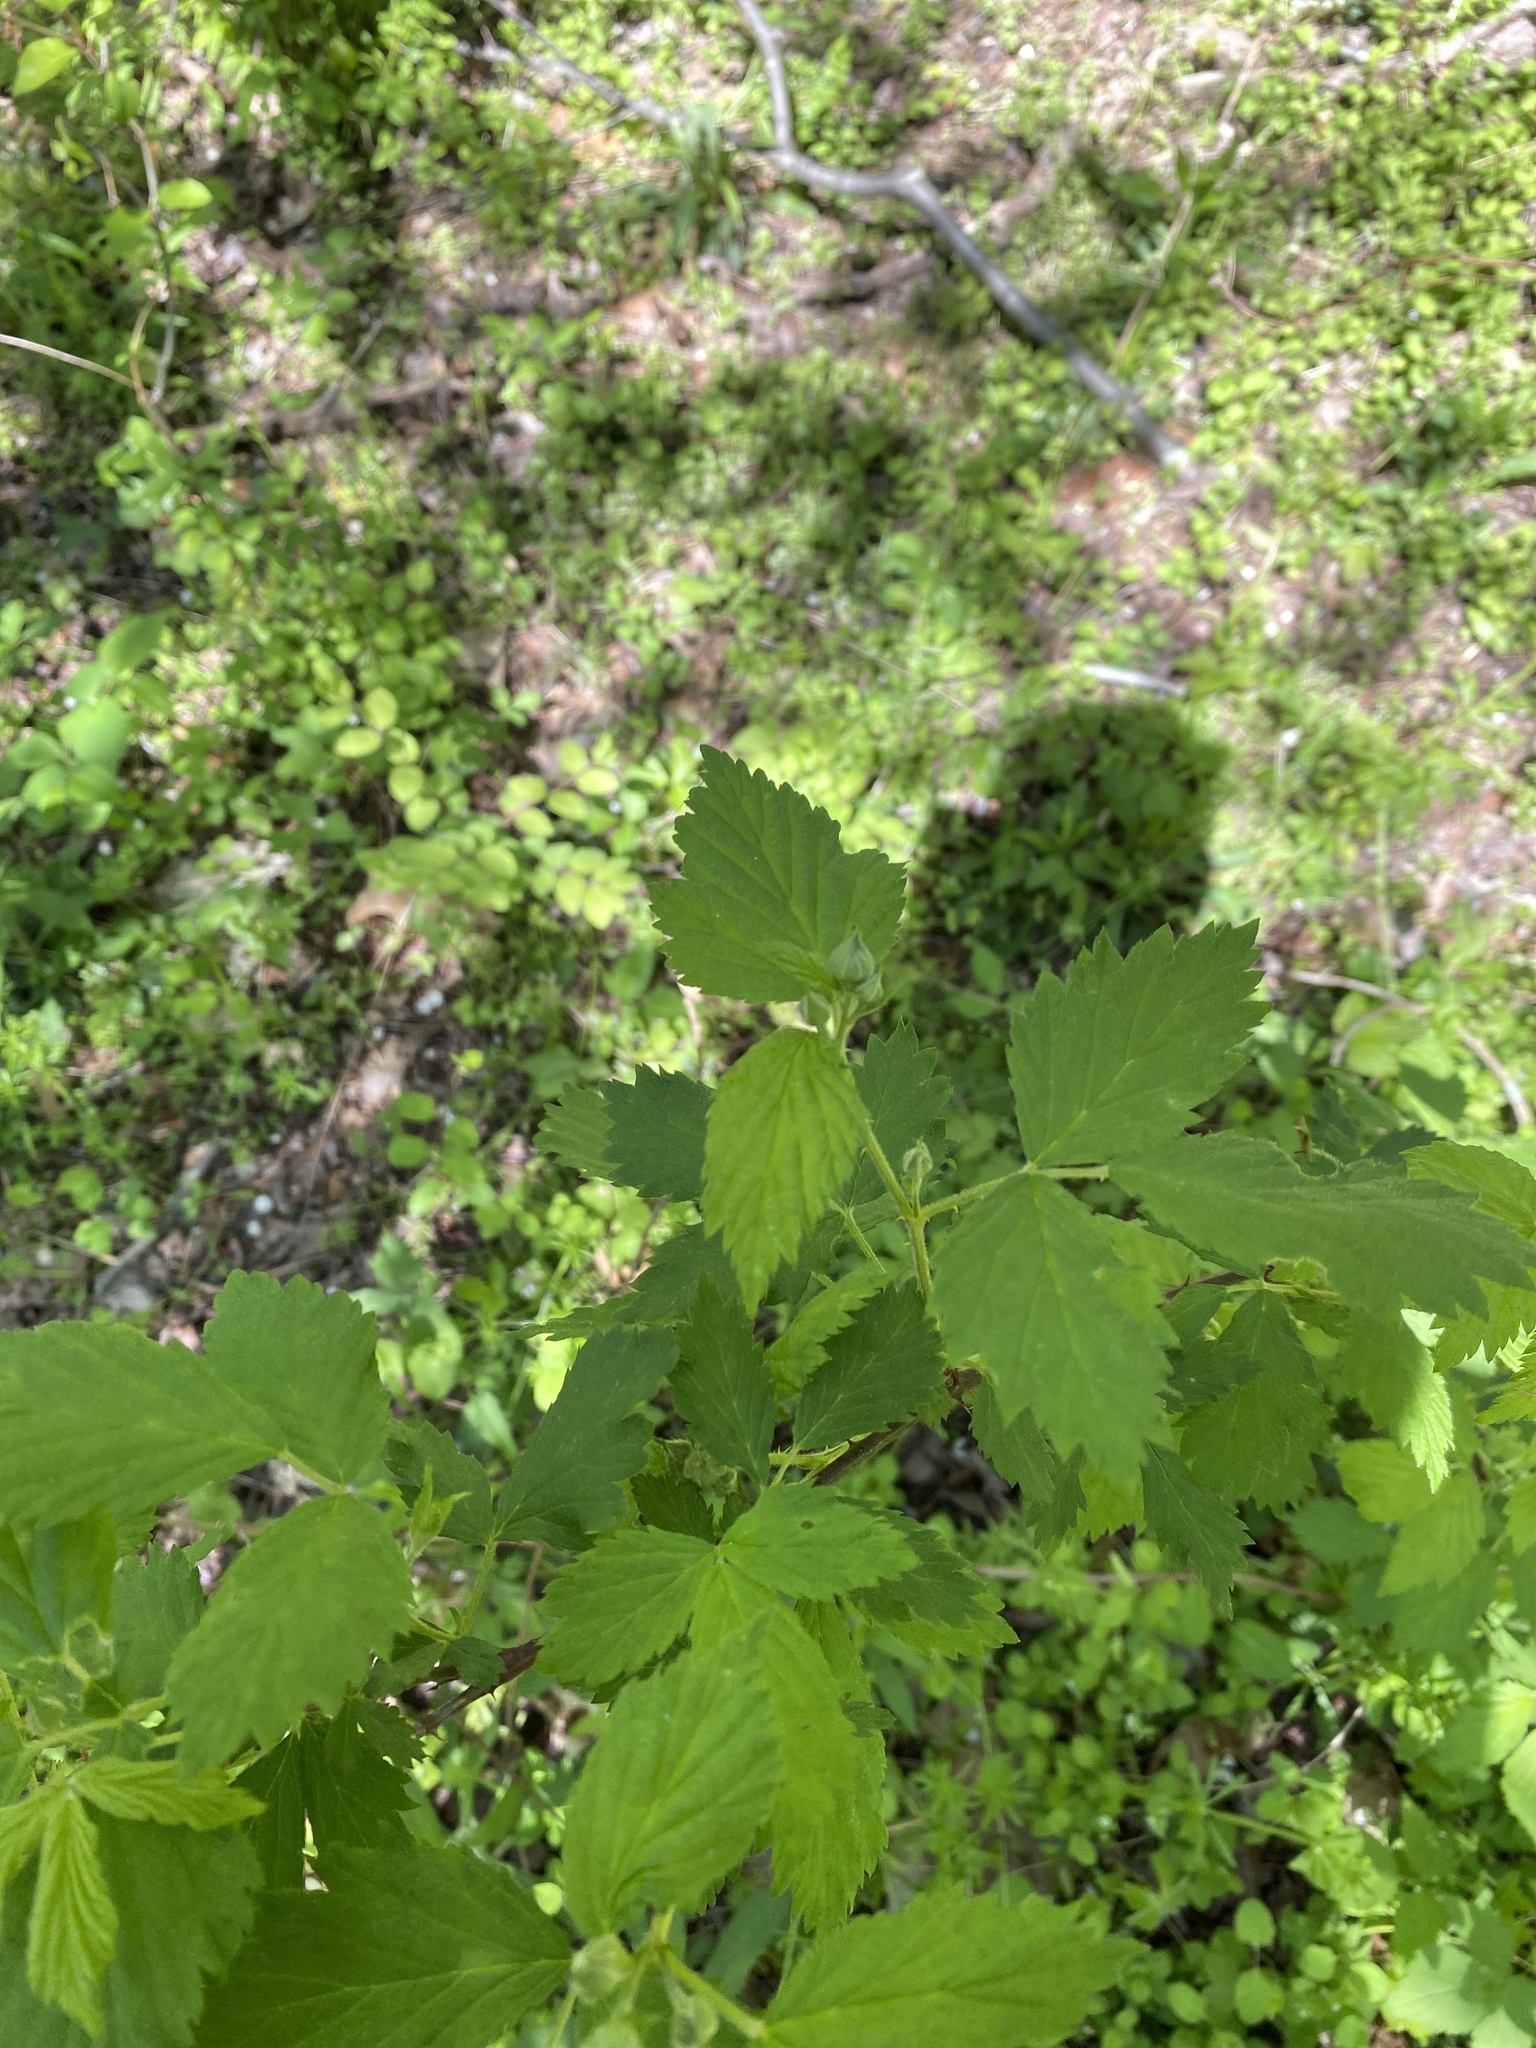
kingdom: Plantae
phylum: Tracheophyta
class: Magnoliopsida
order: Rosales
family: Rosaceae
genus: Rubus
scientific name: Rubus occidentalis
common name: Black raspberry
